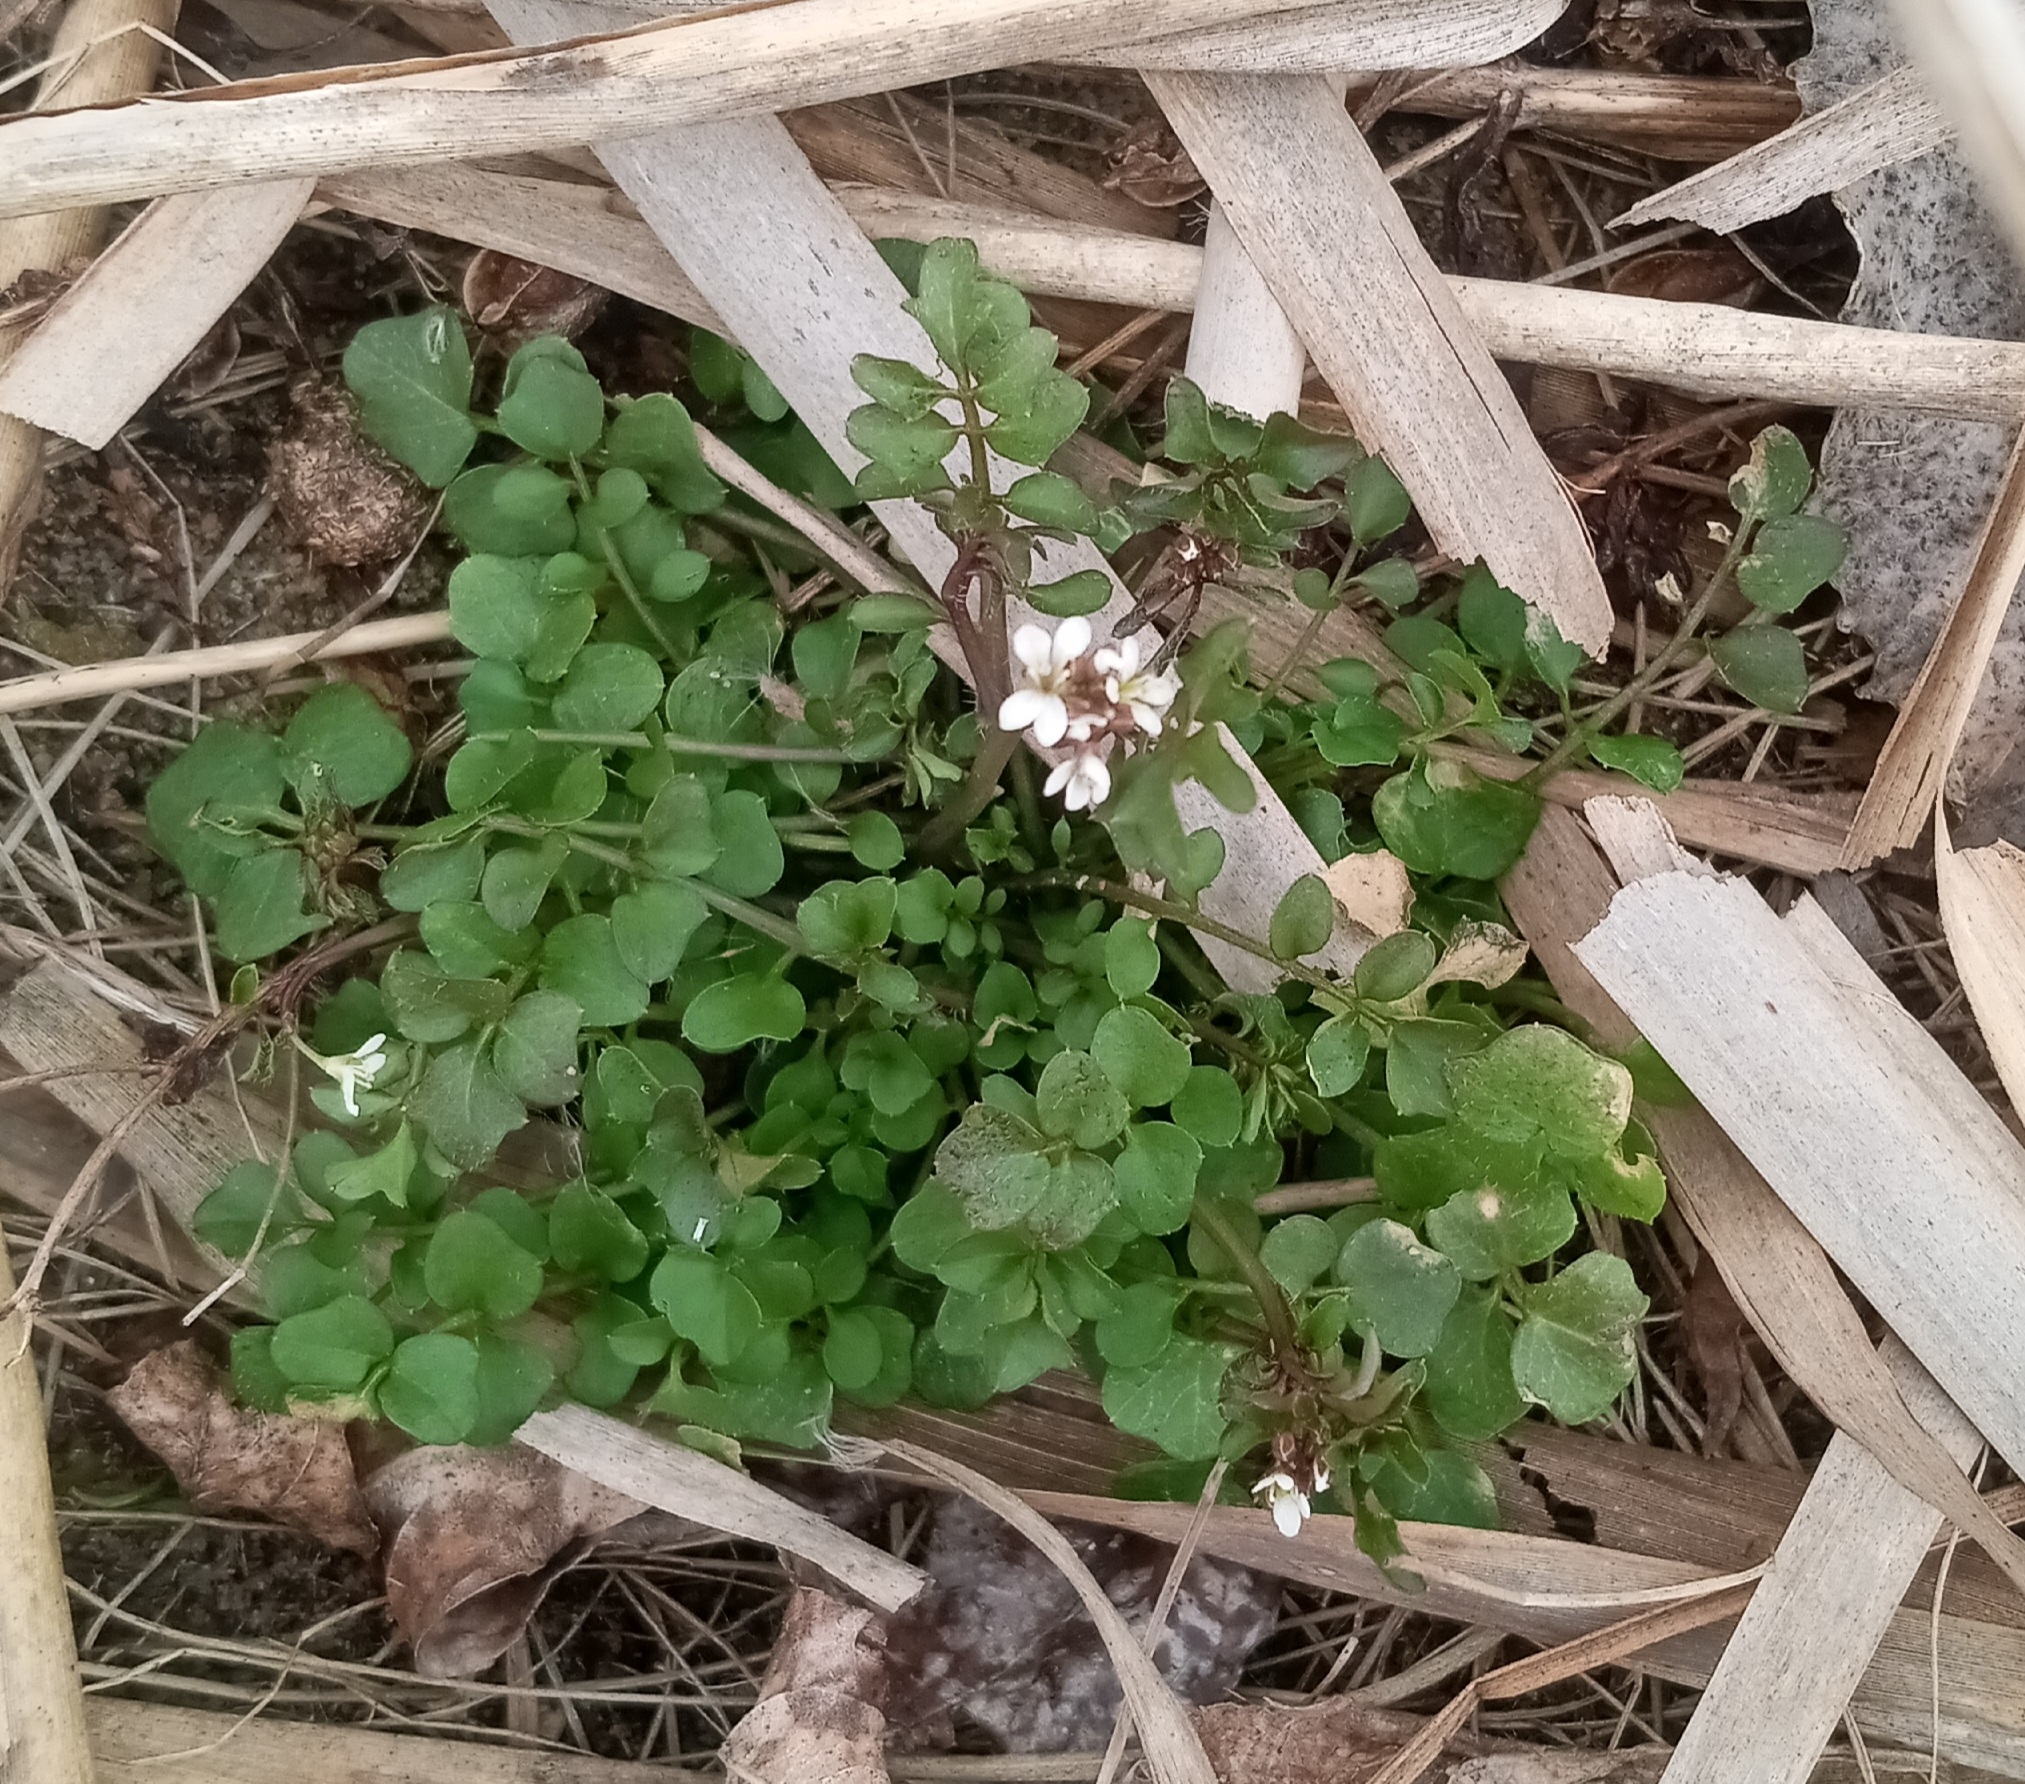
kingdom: Plantae
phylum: Tracheophyta
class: Magnoliopsida
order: Brassicales
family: Brassicaceae
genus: Cardamine
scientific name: Cardamine hirsuta
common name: Hairy bittercress
